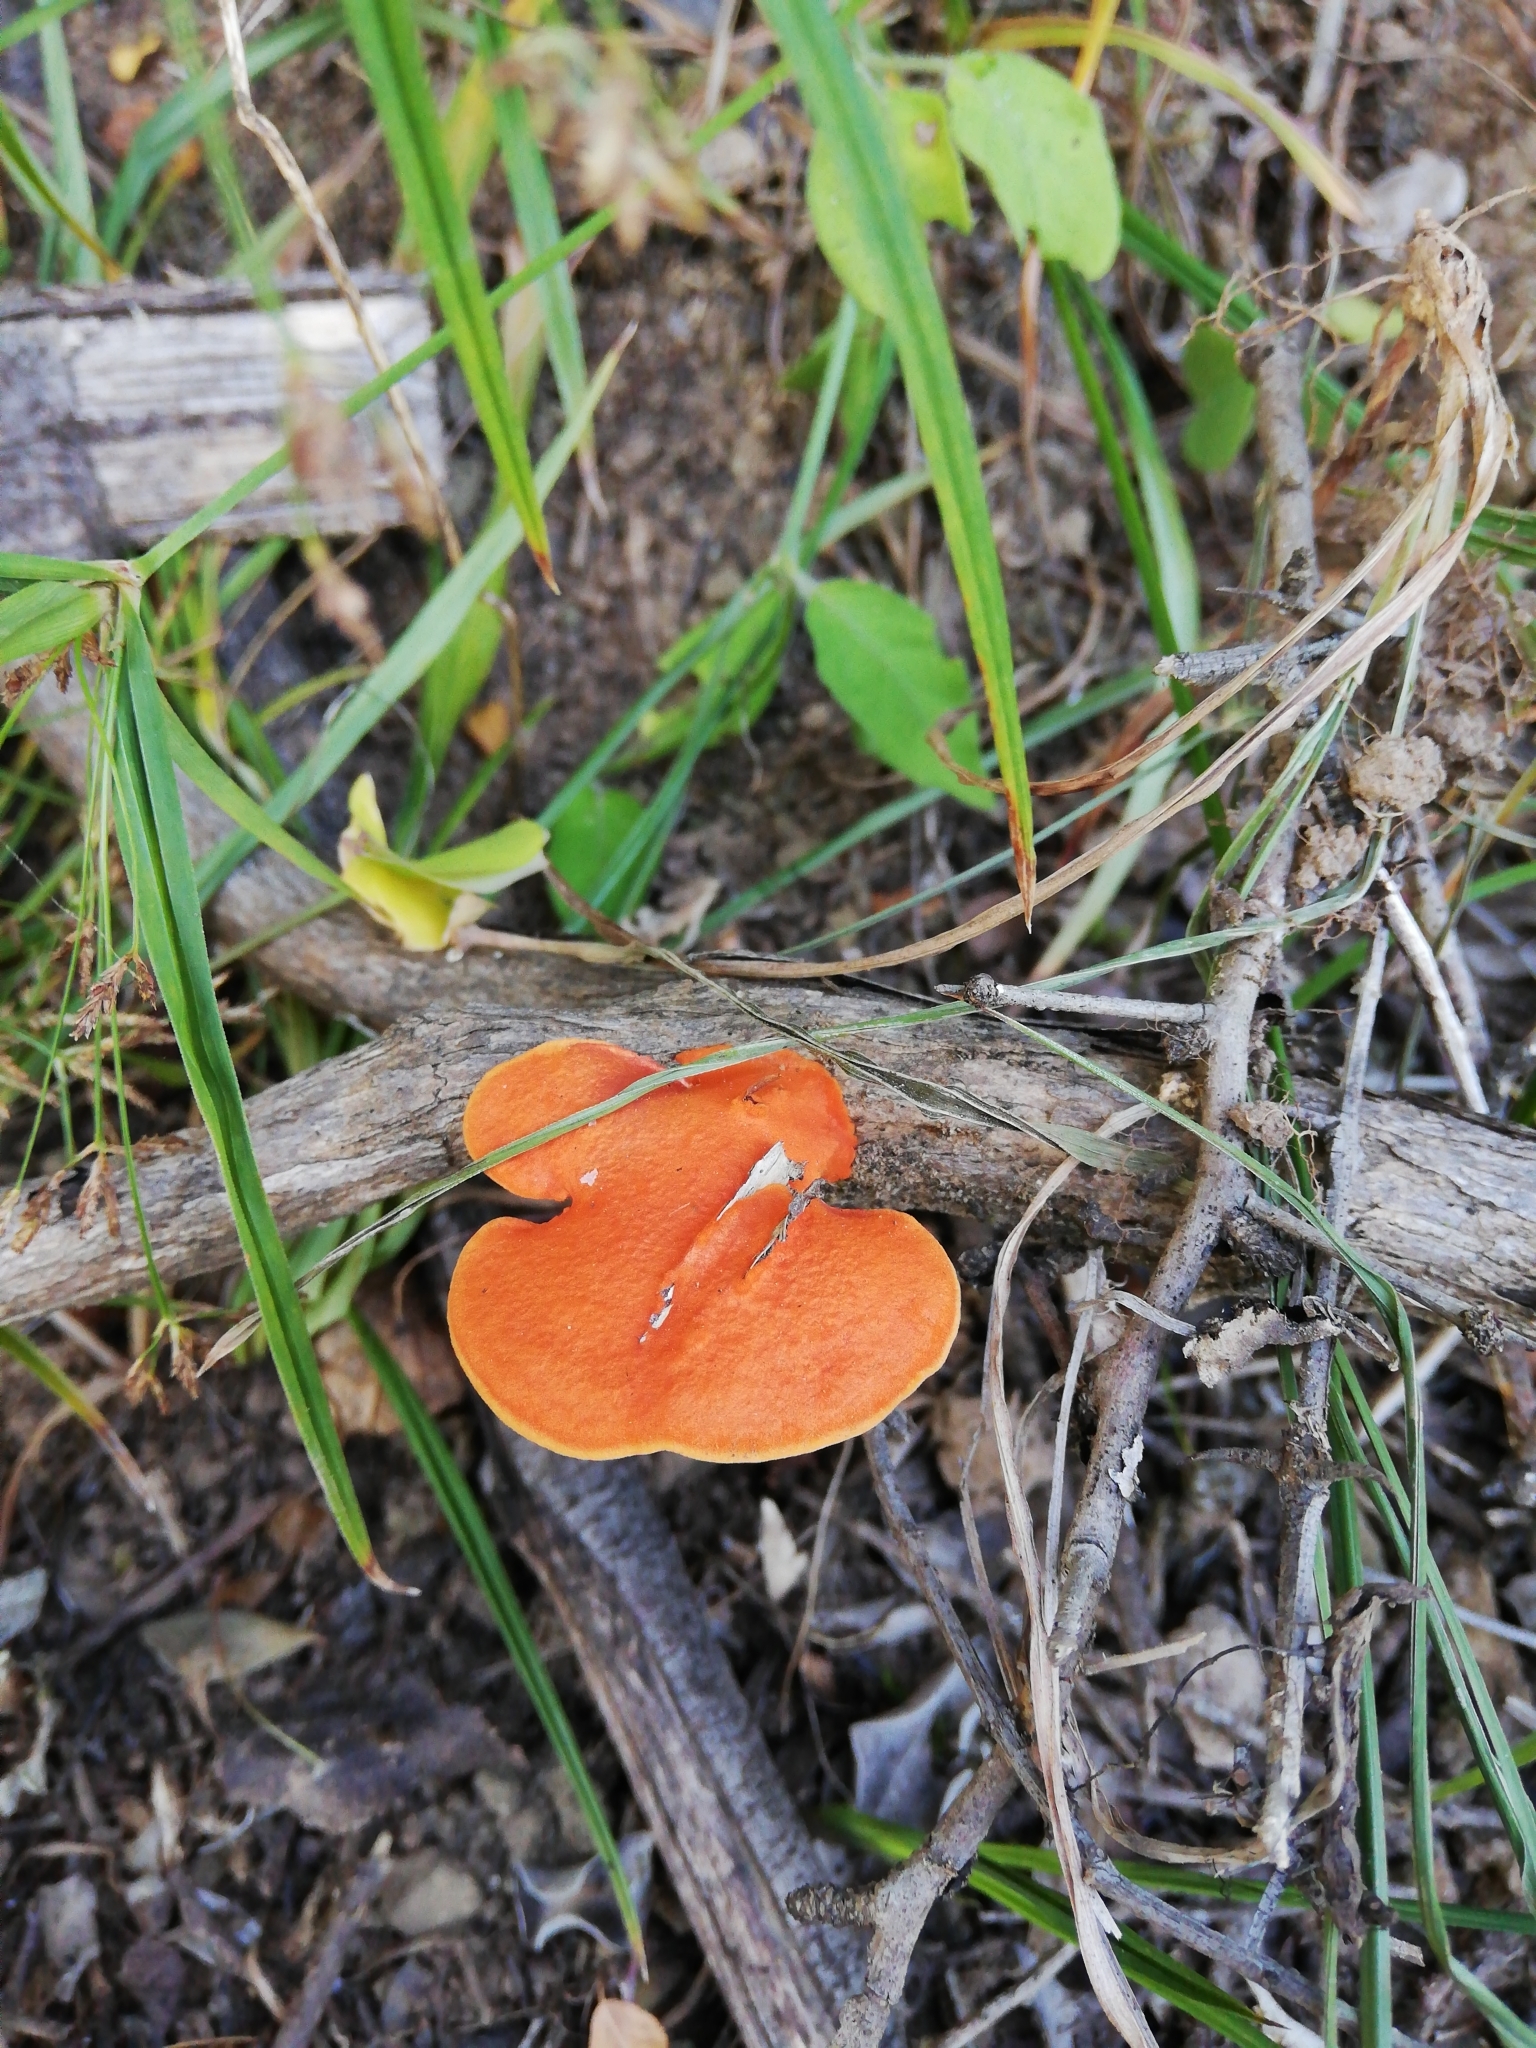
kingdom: Fungi
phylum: Basidiomycota
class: Agaricomycetes
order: Polyporales
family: Polyporaceae
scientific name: Polyporaceae
